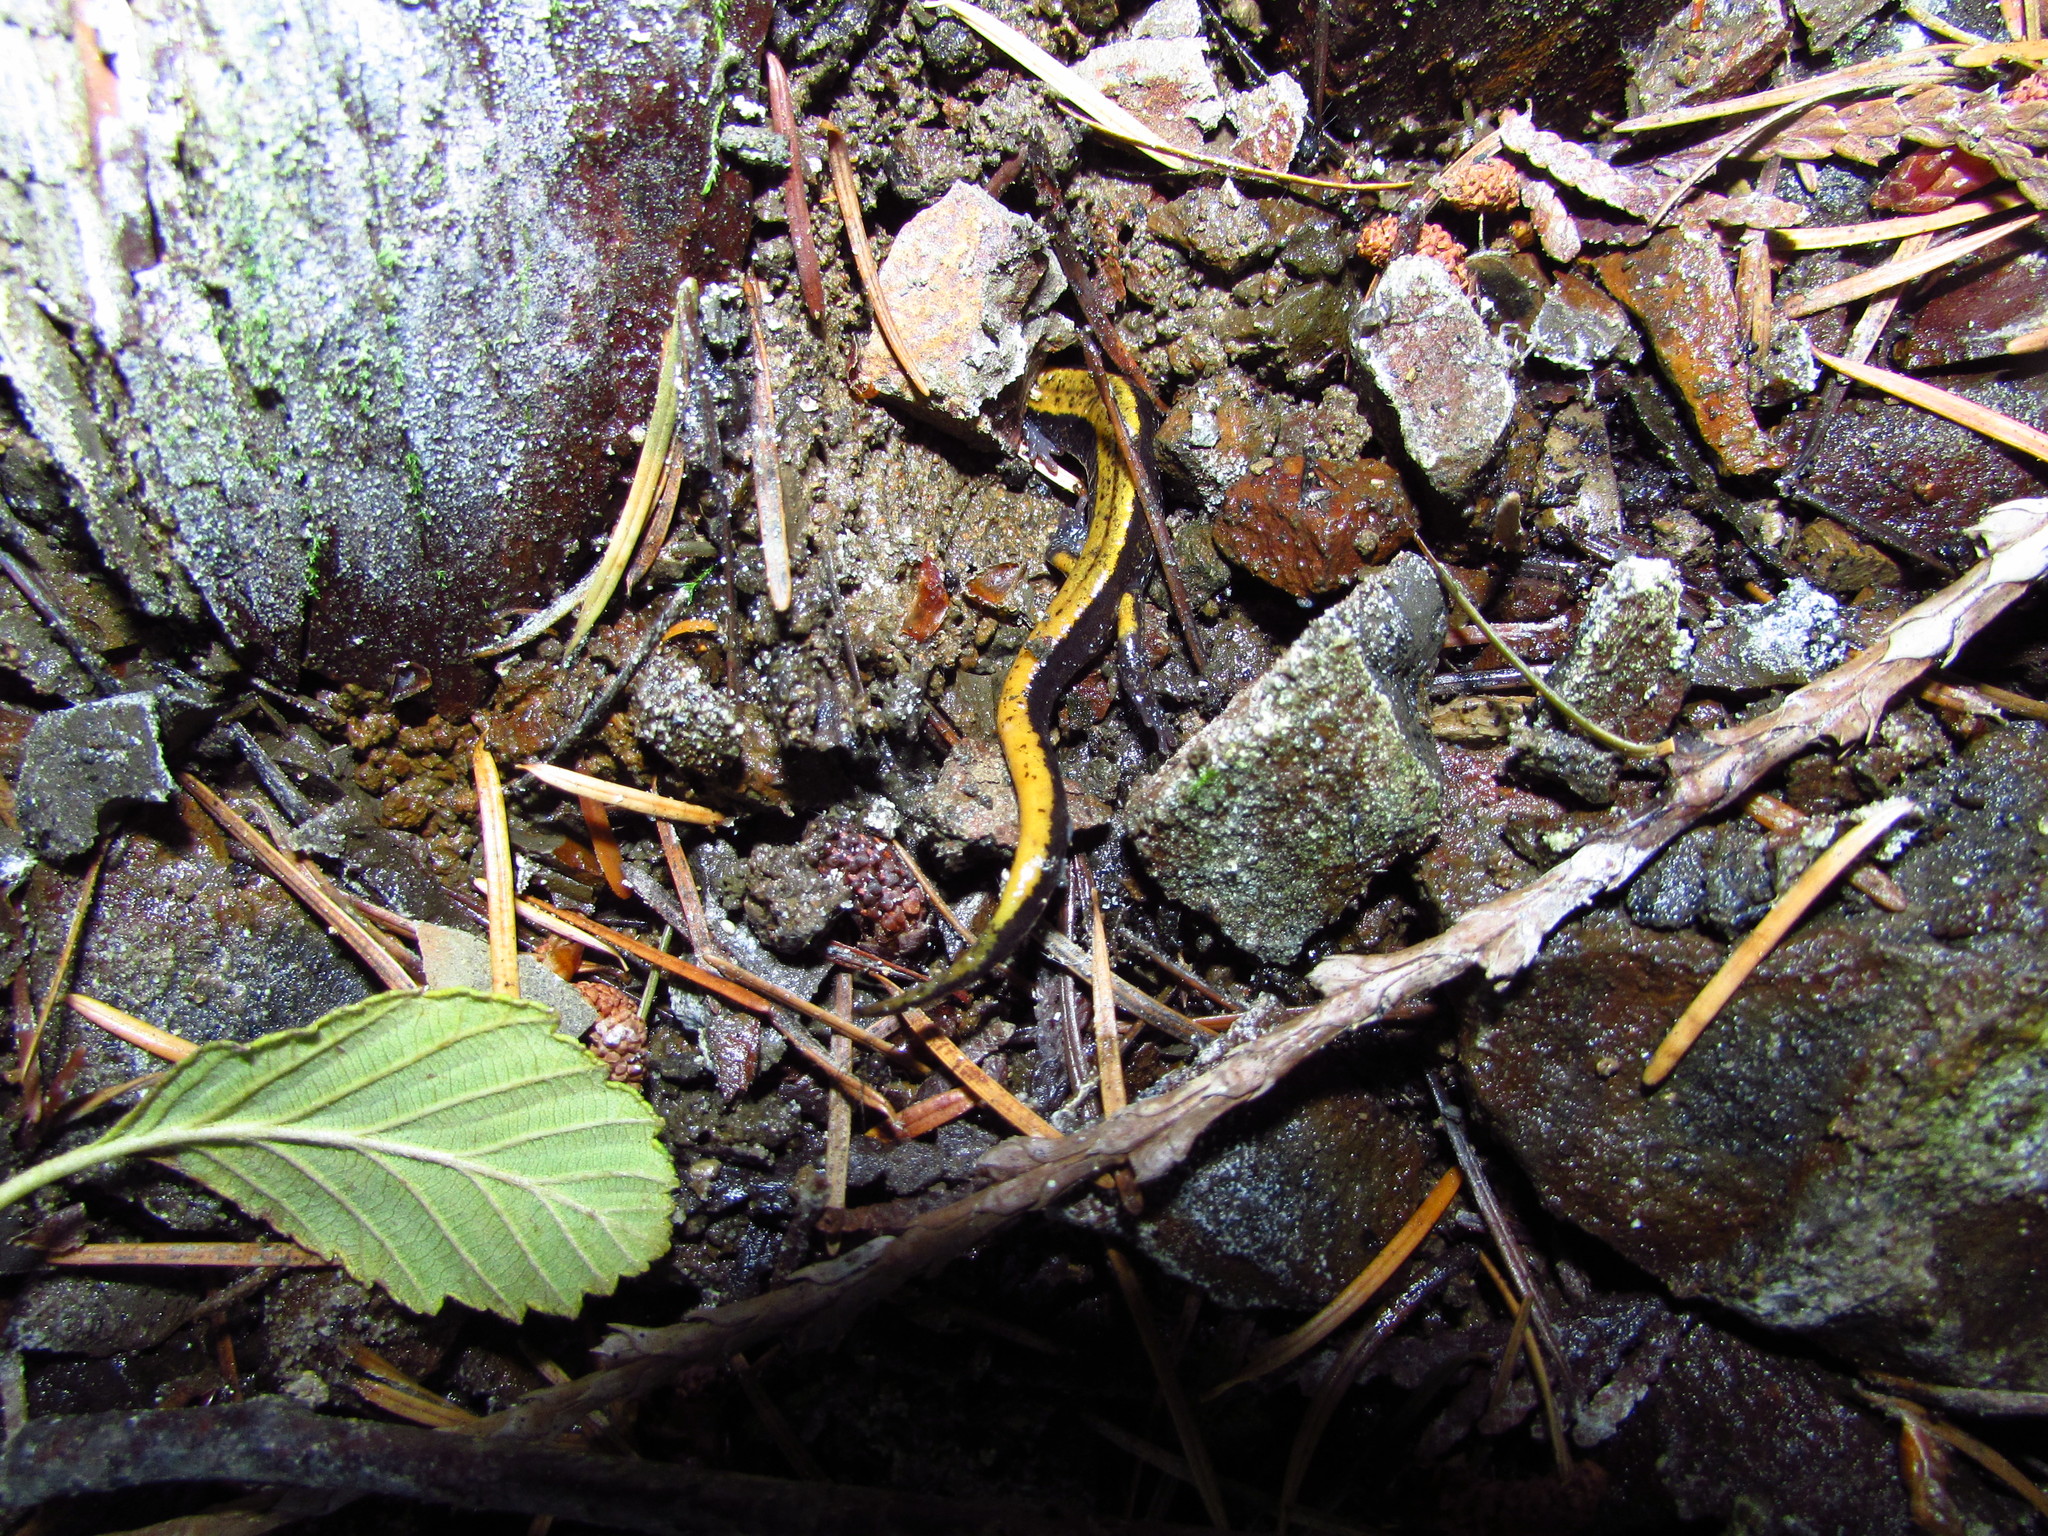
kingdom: Animalia
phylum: Chordata
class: Amphibia
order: Caudata
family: Plethodontidae
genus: Plethodon
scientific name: Plethodon vehiculum
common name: Western red-backed salamander
